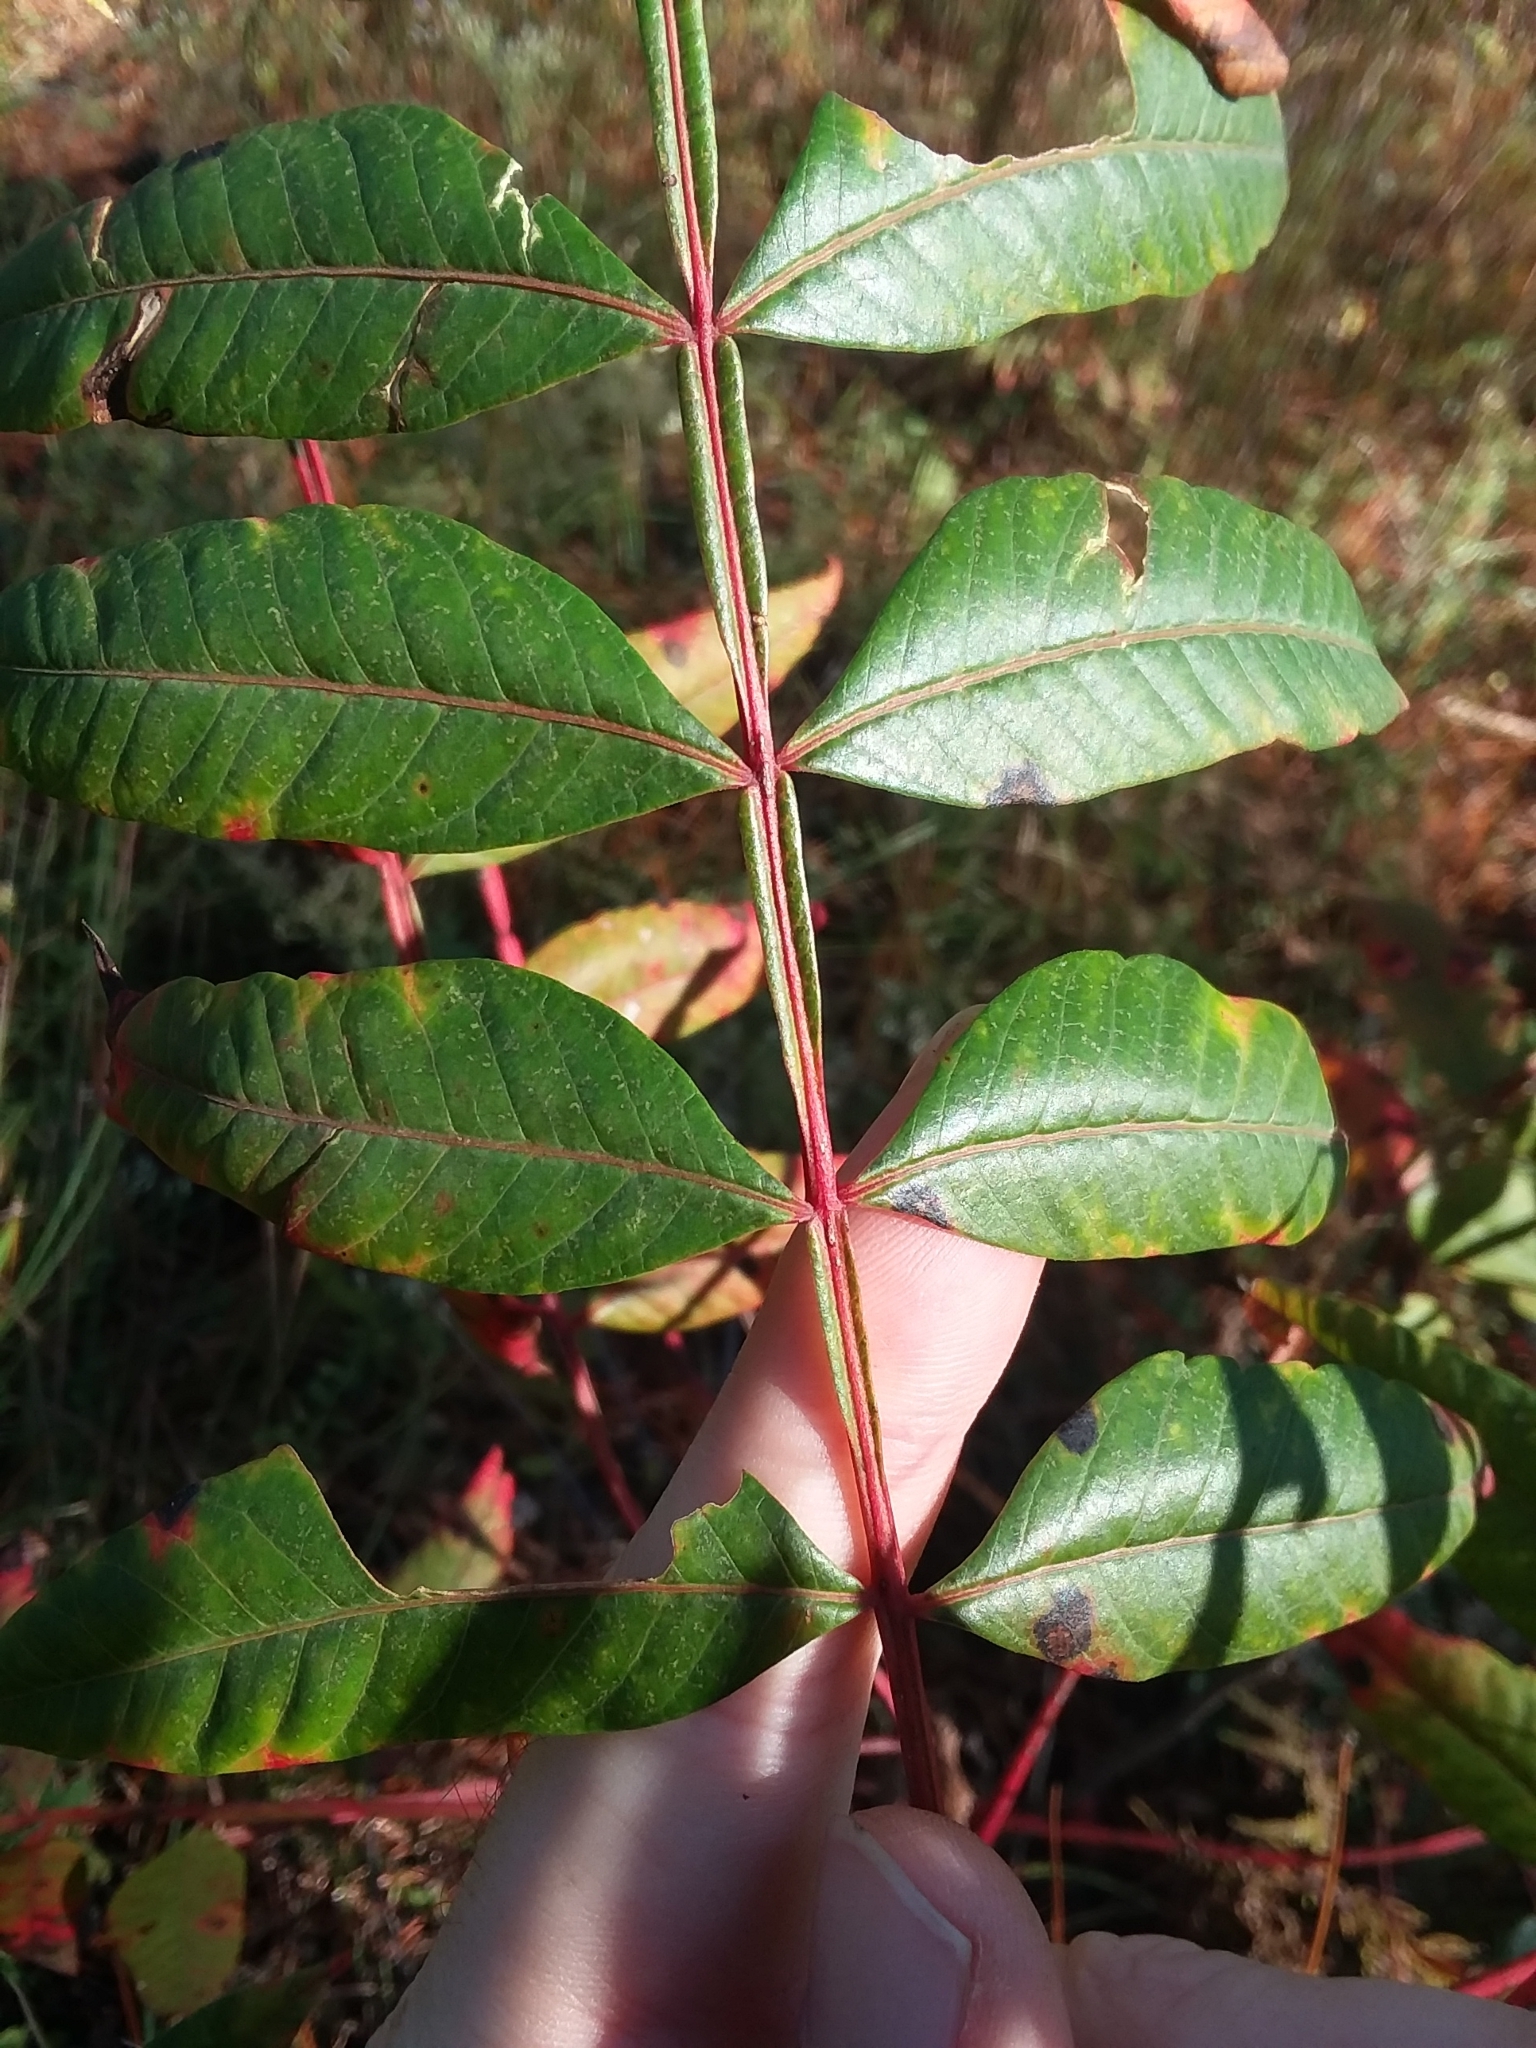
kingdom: Plantae
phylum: Tracheophyta
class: Magnoliopsida
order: Sapindales
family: Anacardiaceae
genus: Rhus
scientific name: Rhus copallina
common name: Shining sumac
